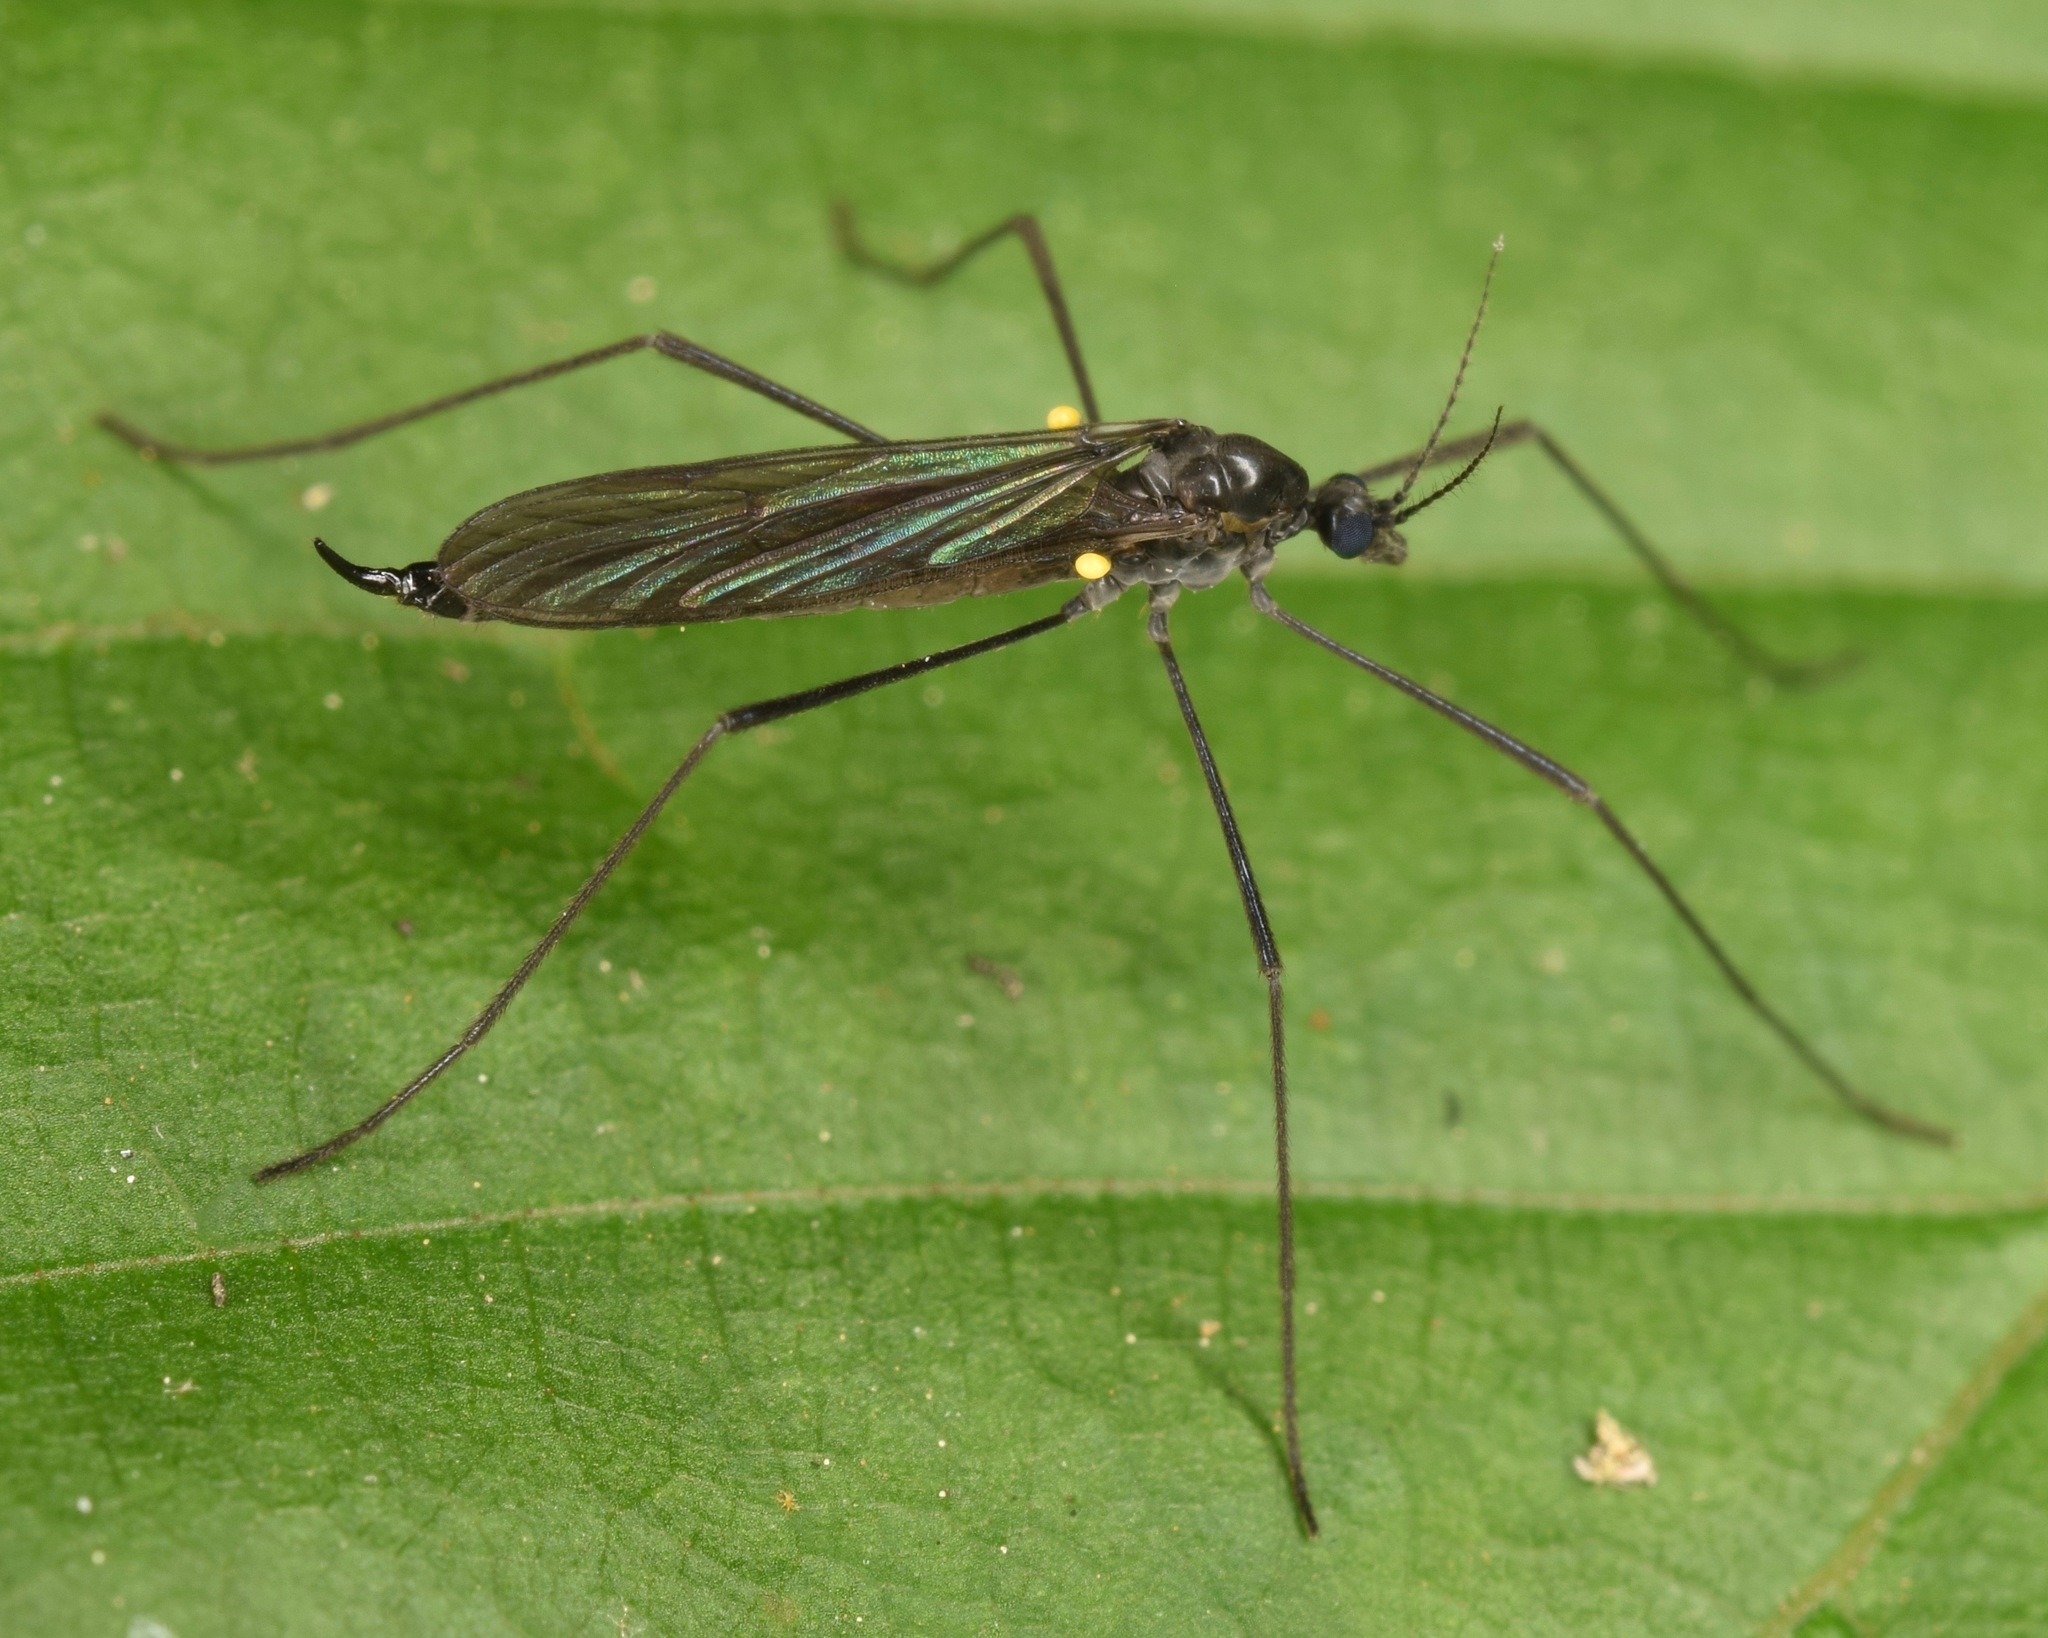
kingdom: Animalia
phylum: Arthropoda
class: Insecta
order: Diptera
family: Limoniidae
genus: Gnophomyia
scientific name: Gnophomyia tristissima
